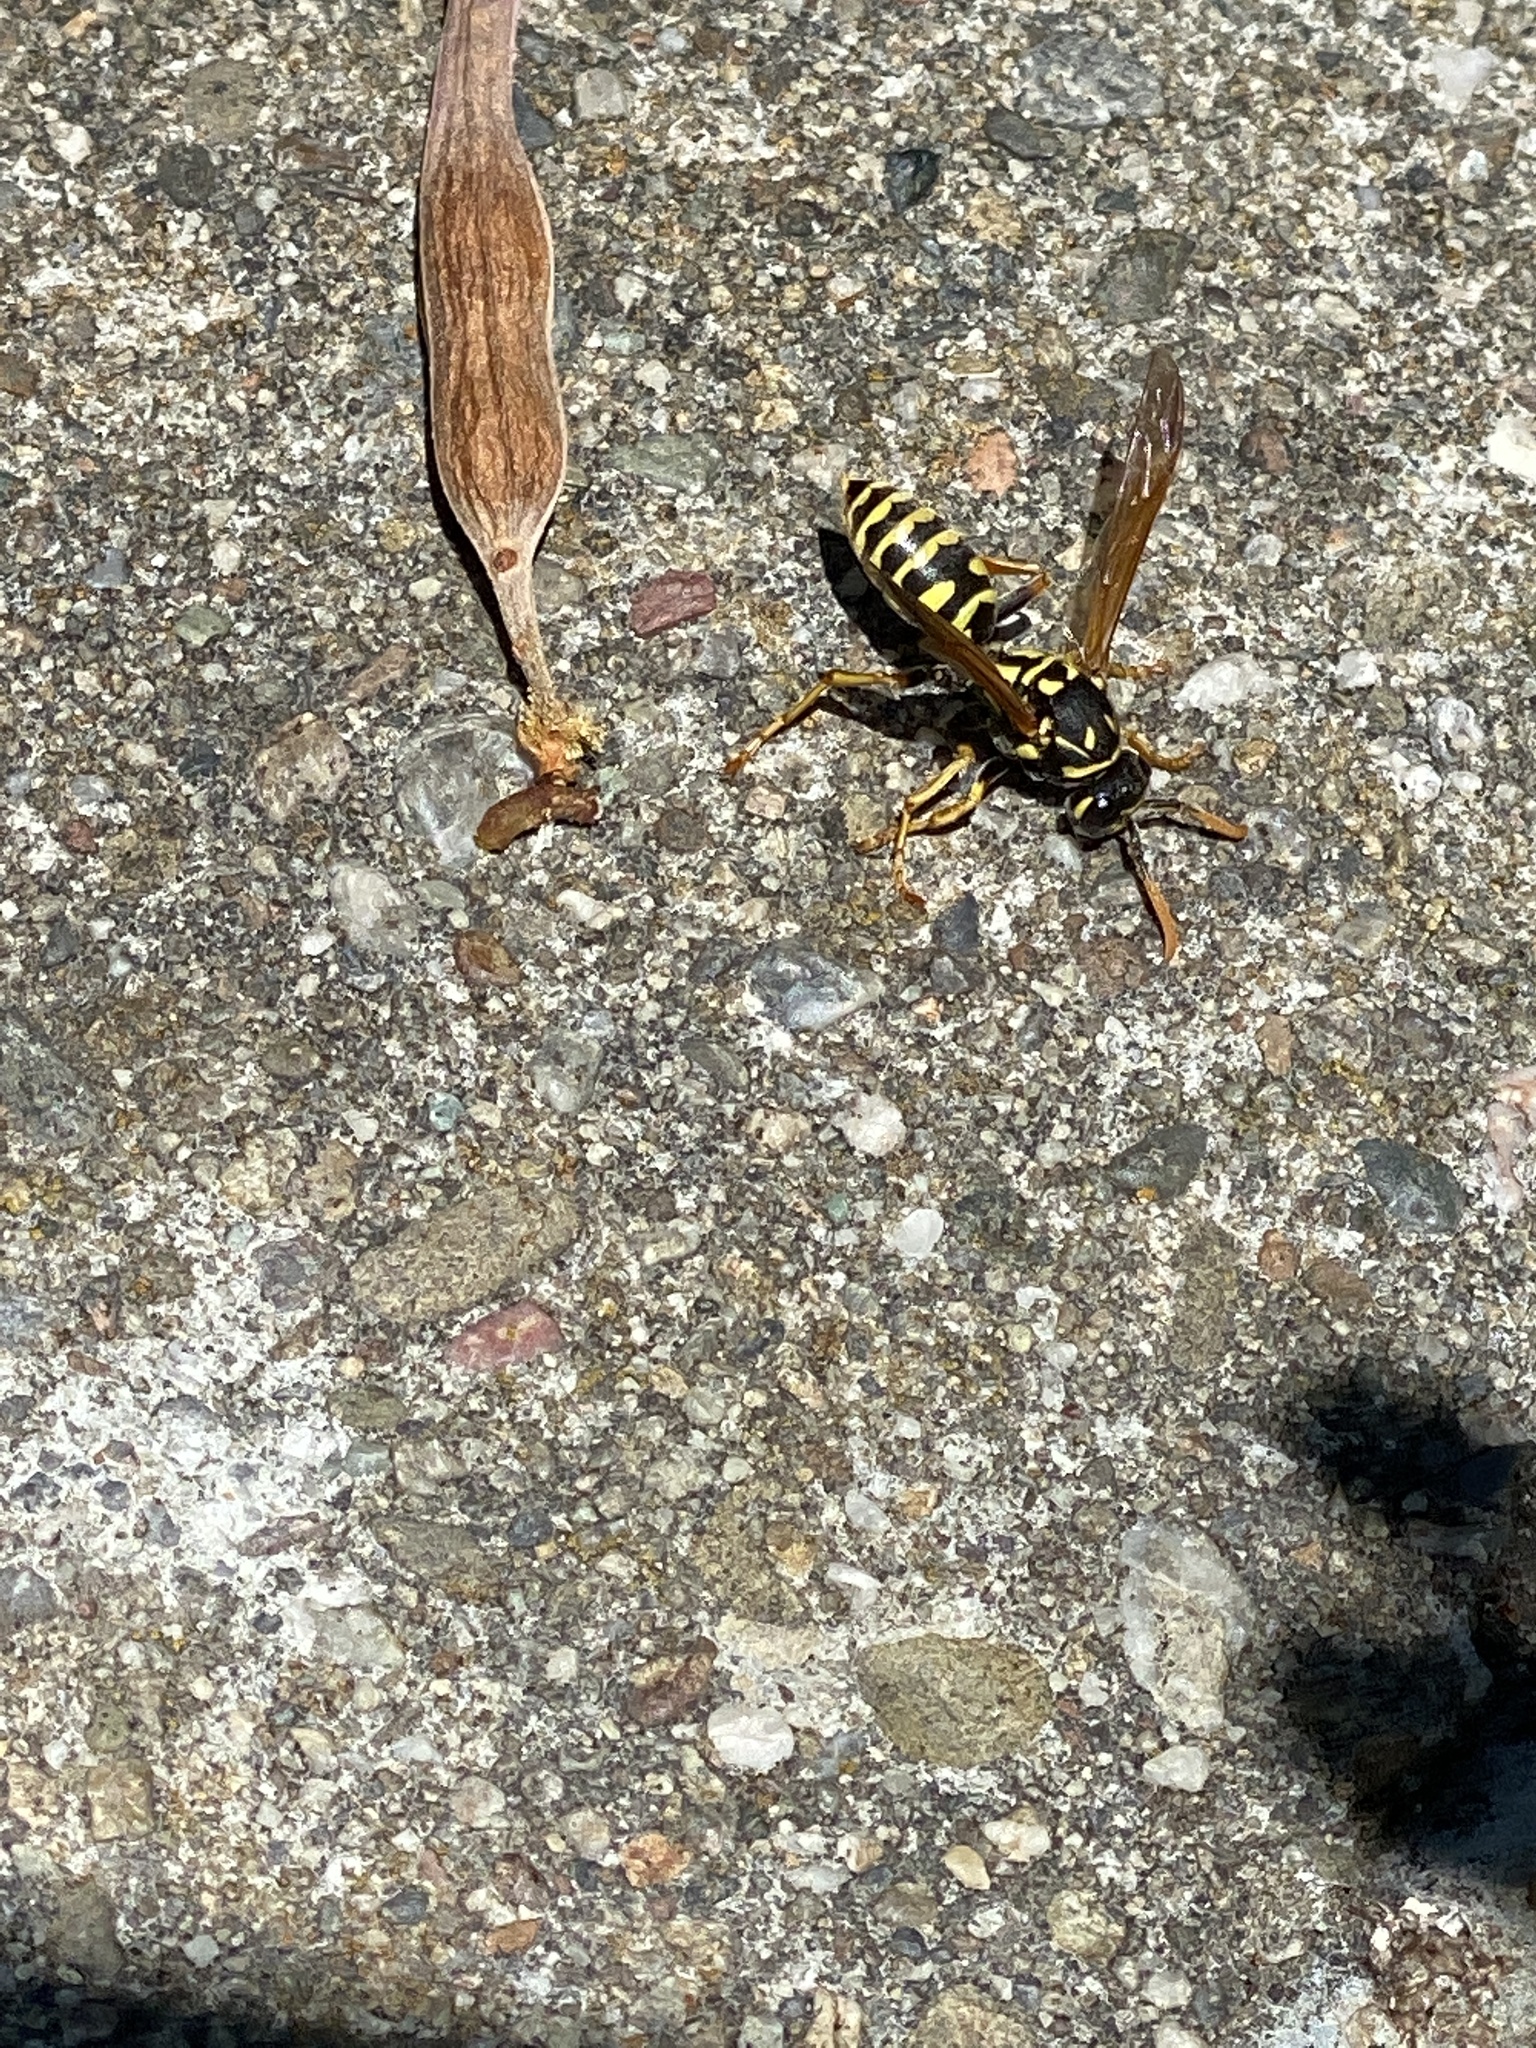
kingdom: Animalia
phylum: Arthropoda
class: Insecta
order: Hymenoptera
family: Eumenidae
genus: Polistes
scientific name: Polistes dominula
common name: Paper wasp
